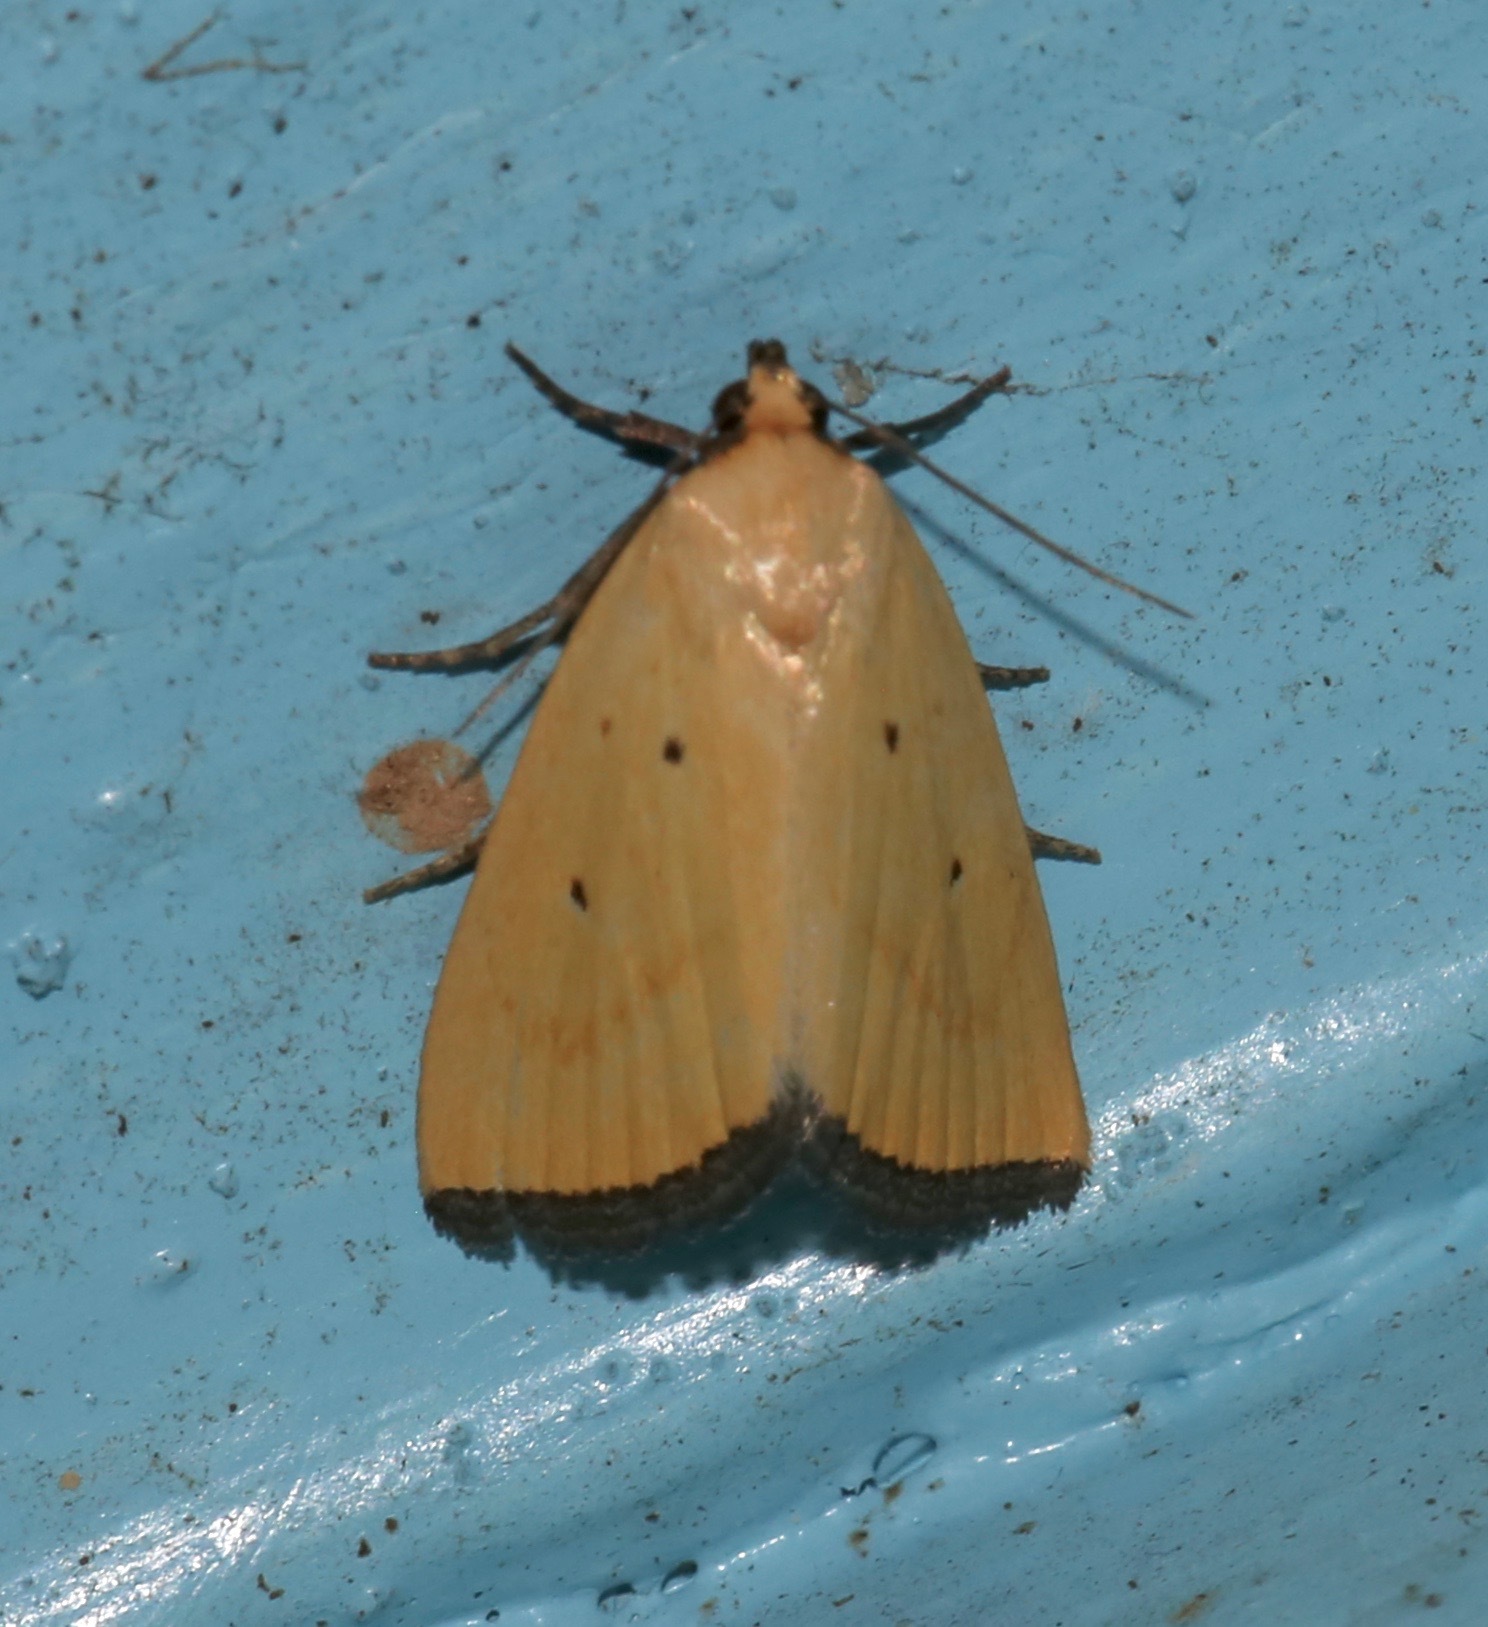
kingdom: Animalia
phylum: Arthropoda
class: Insecta
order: Lepidoptera
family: Noctuidae
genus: Marimatha
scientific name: Marimatha nigrofimbria
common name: Black-bordered lemon moth
